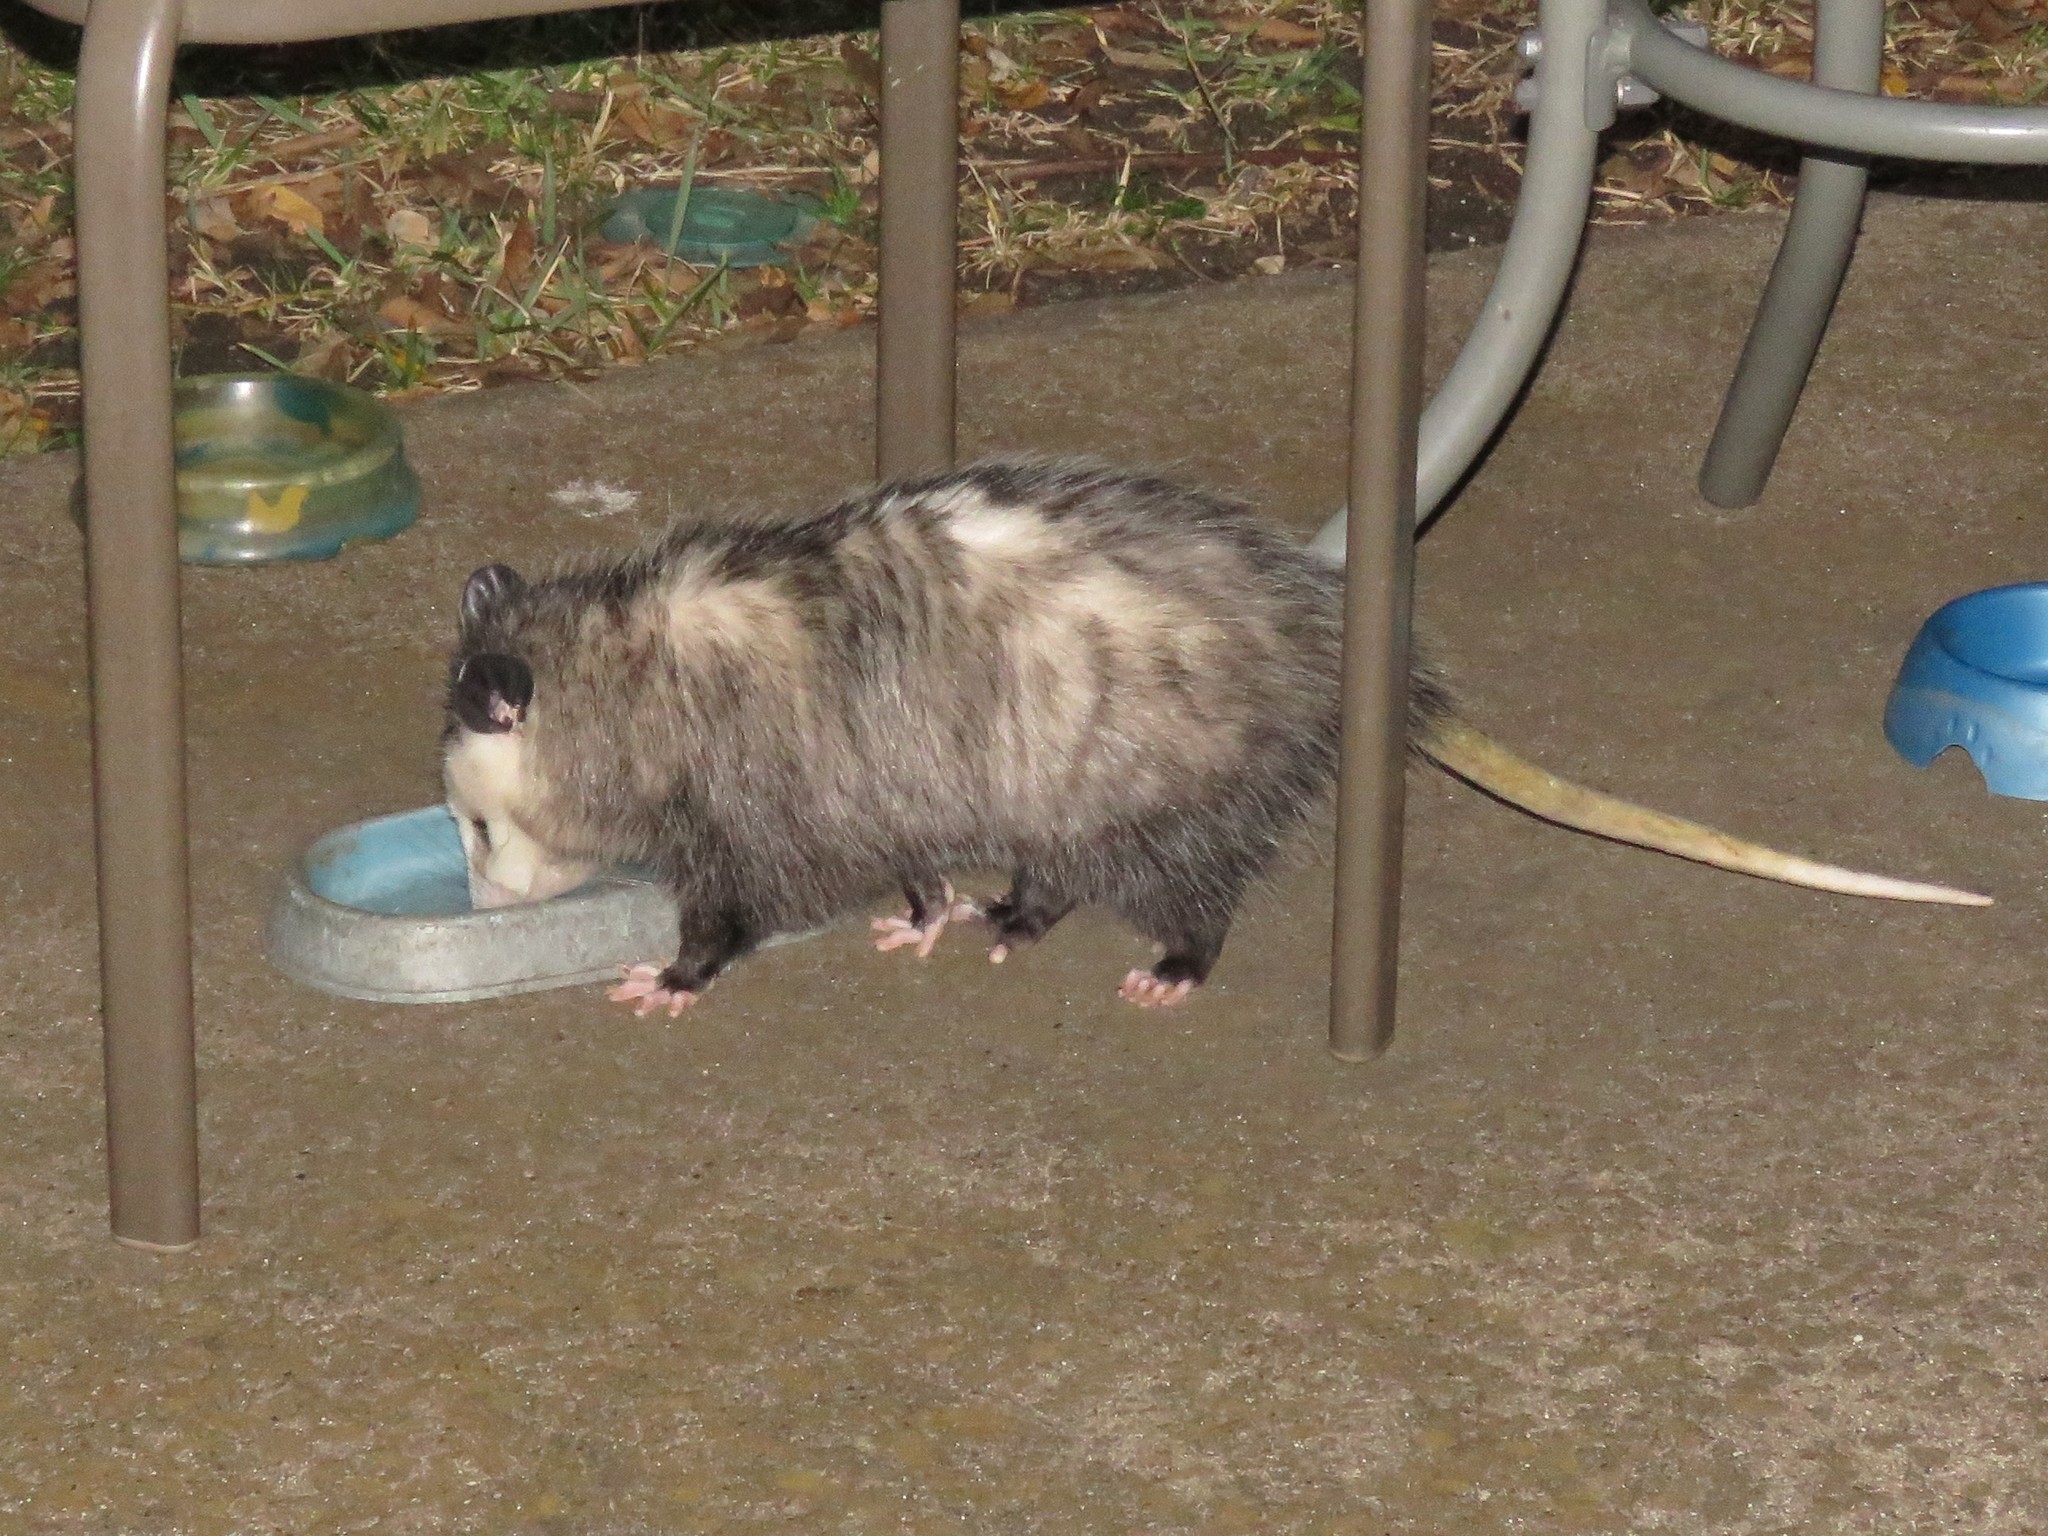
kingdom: Animalia
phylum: Chordata
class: Mammalia
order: Didelphimorphia
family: Didelphidae
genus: Didelphis
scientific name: Didelphis virginiana
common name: Virginia opossum
